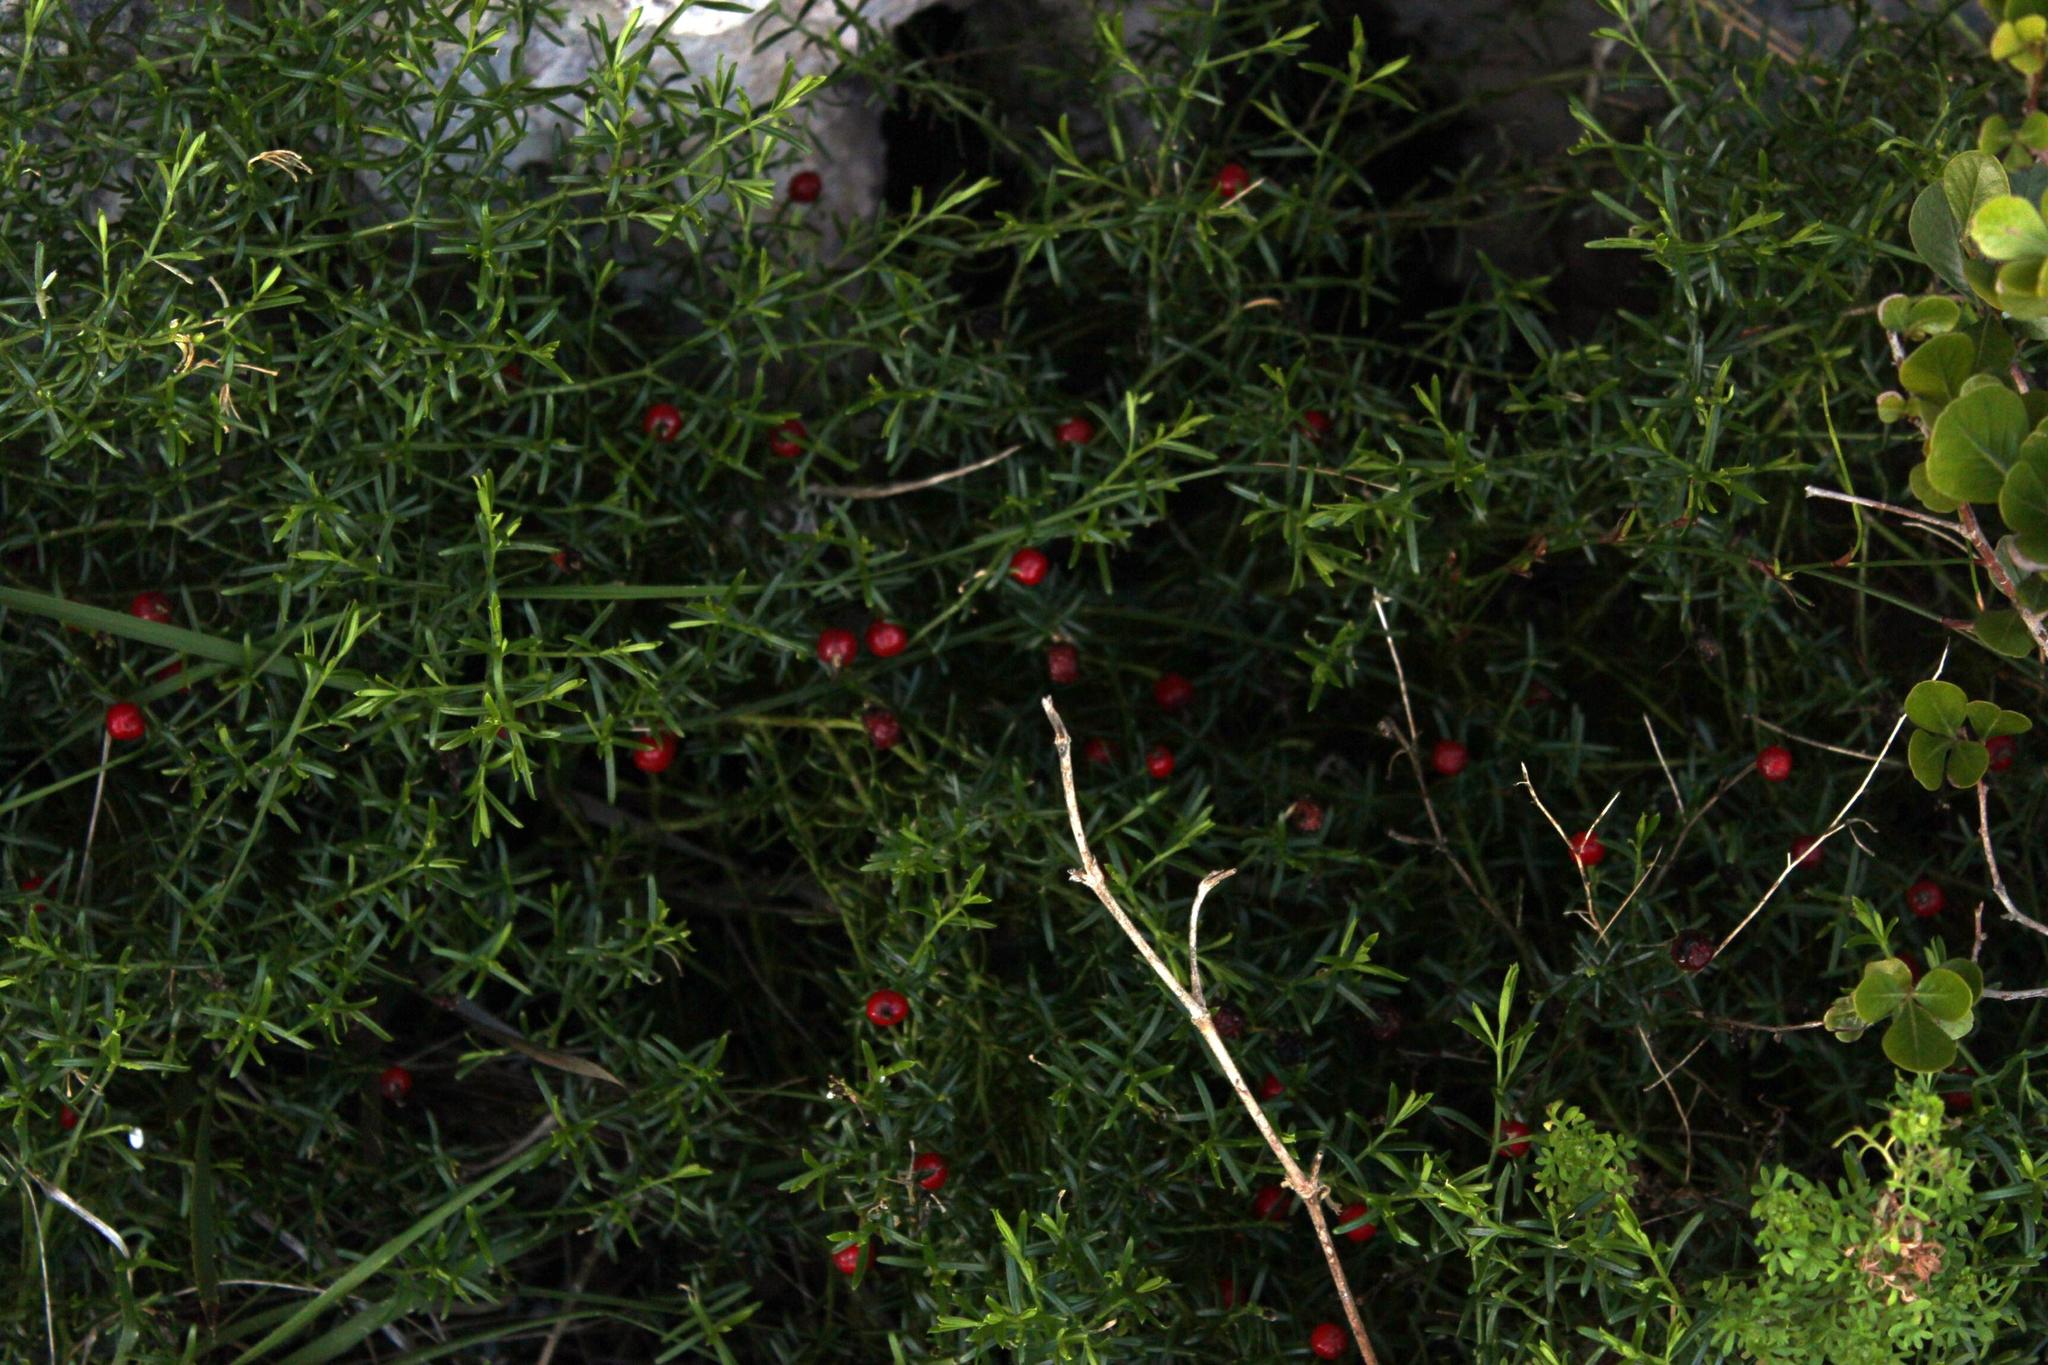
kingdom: Plantae
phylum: Tracheophyta
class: Magnoliopsida
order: Gentianales
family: Gentianaceae
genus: Chironia
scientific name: Chironia baccifera
